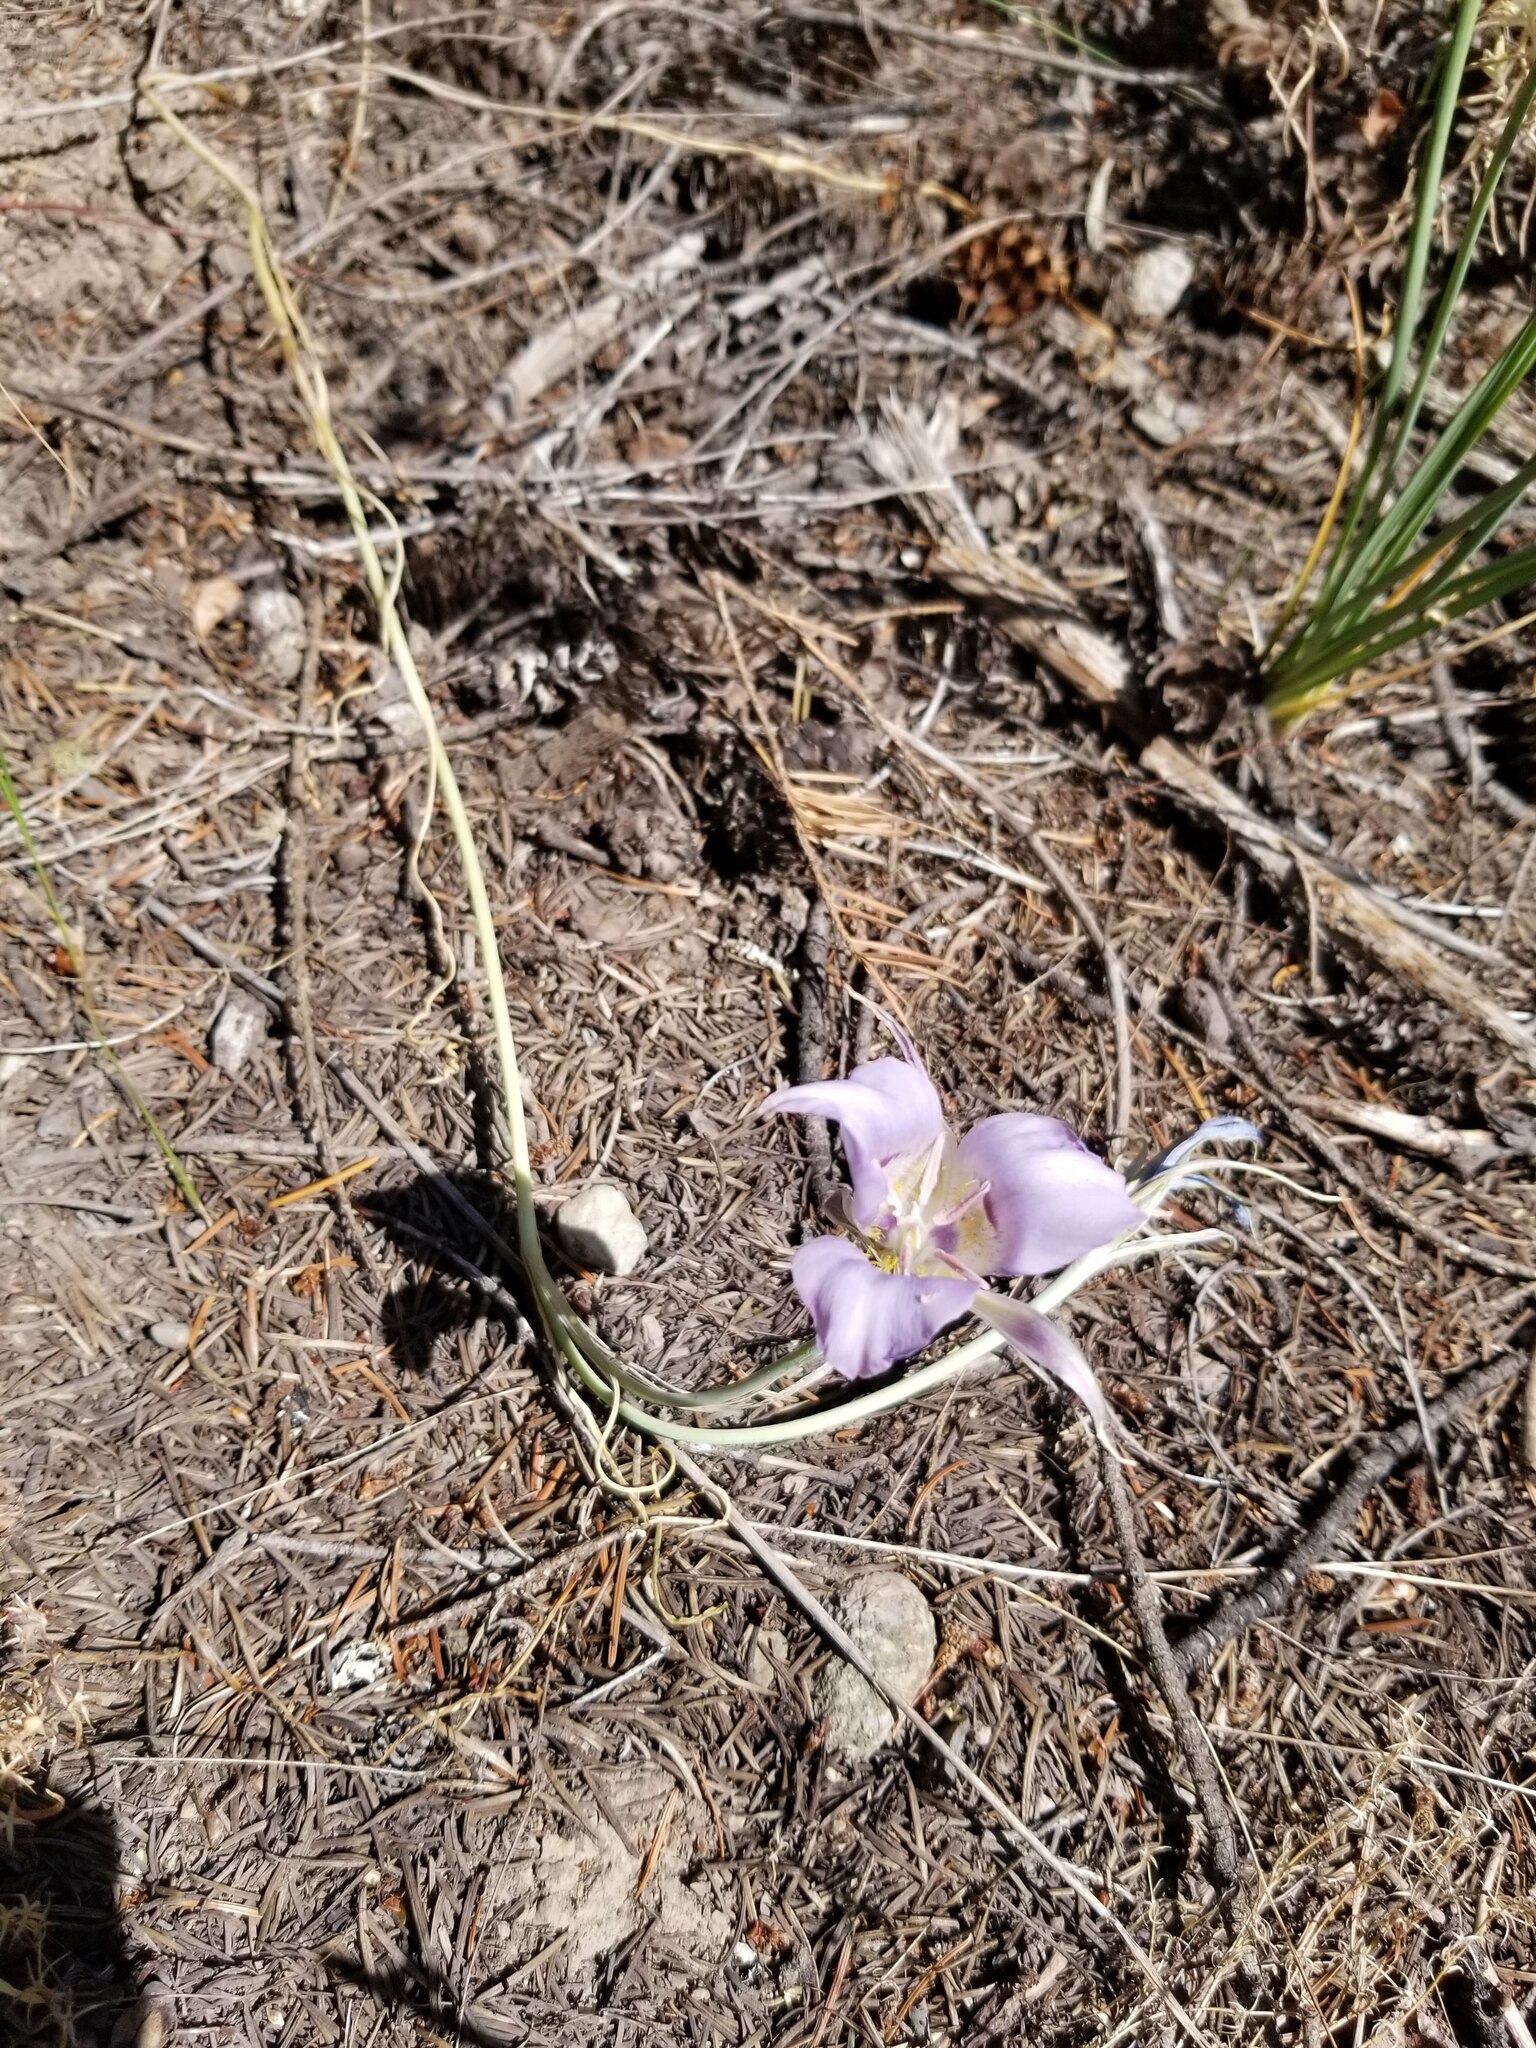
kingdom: Plantae
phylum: Tracheophyta
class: Liliopsida
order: Liliales
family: Liliaceae
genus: Calochortus
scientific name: Calochortus macrocarpus
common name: Green-band mariposa lily
